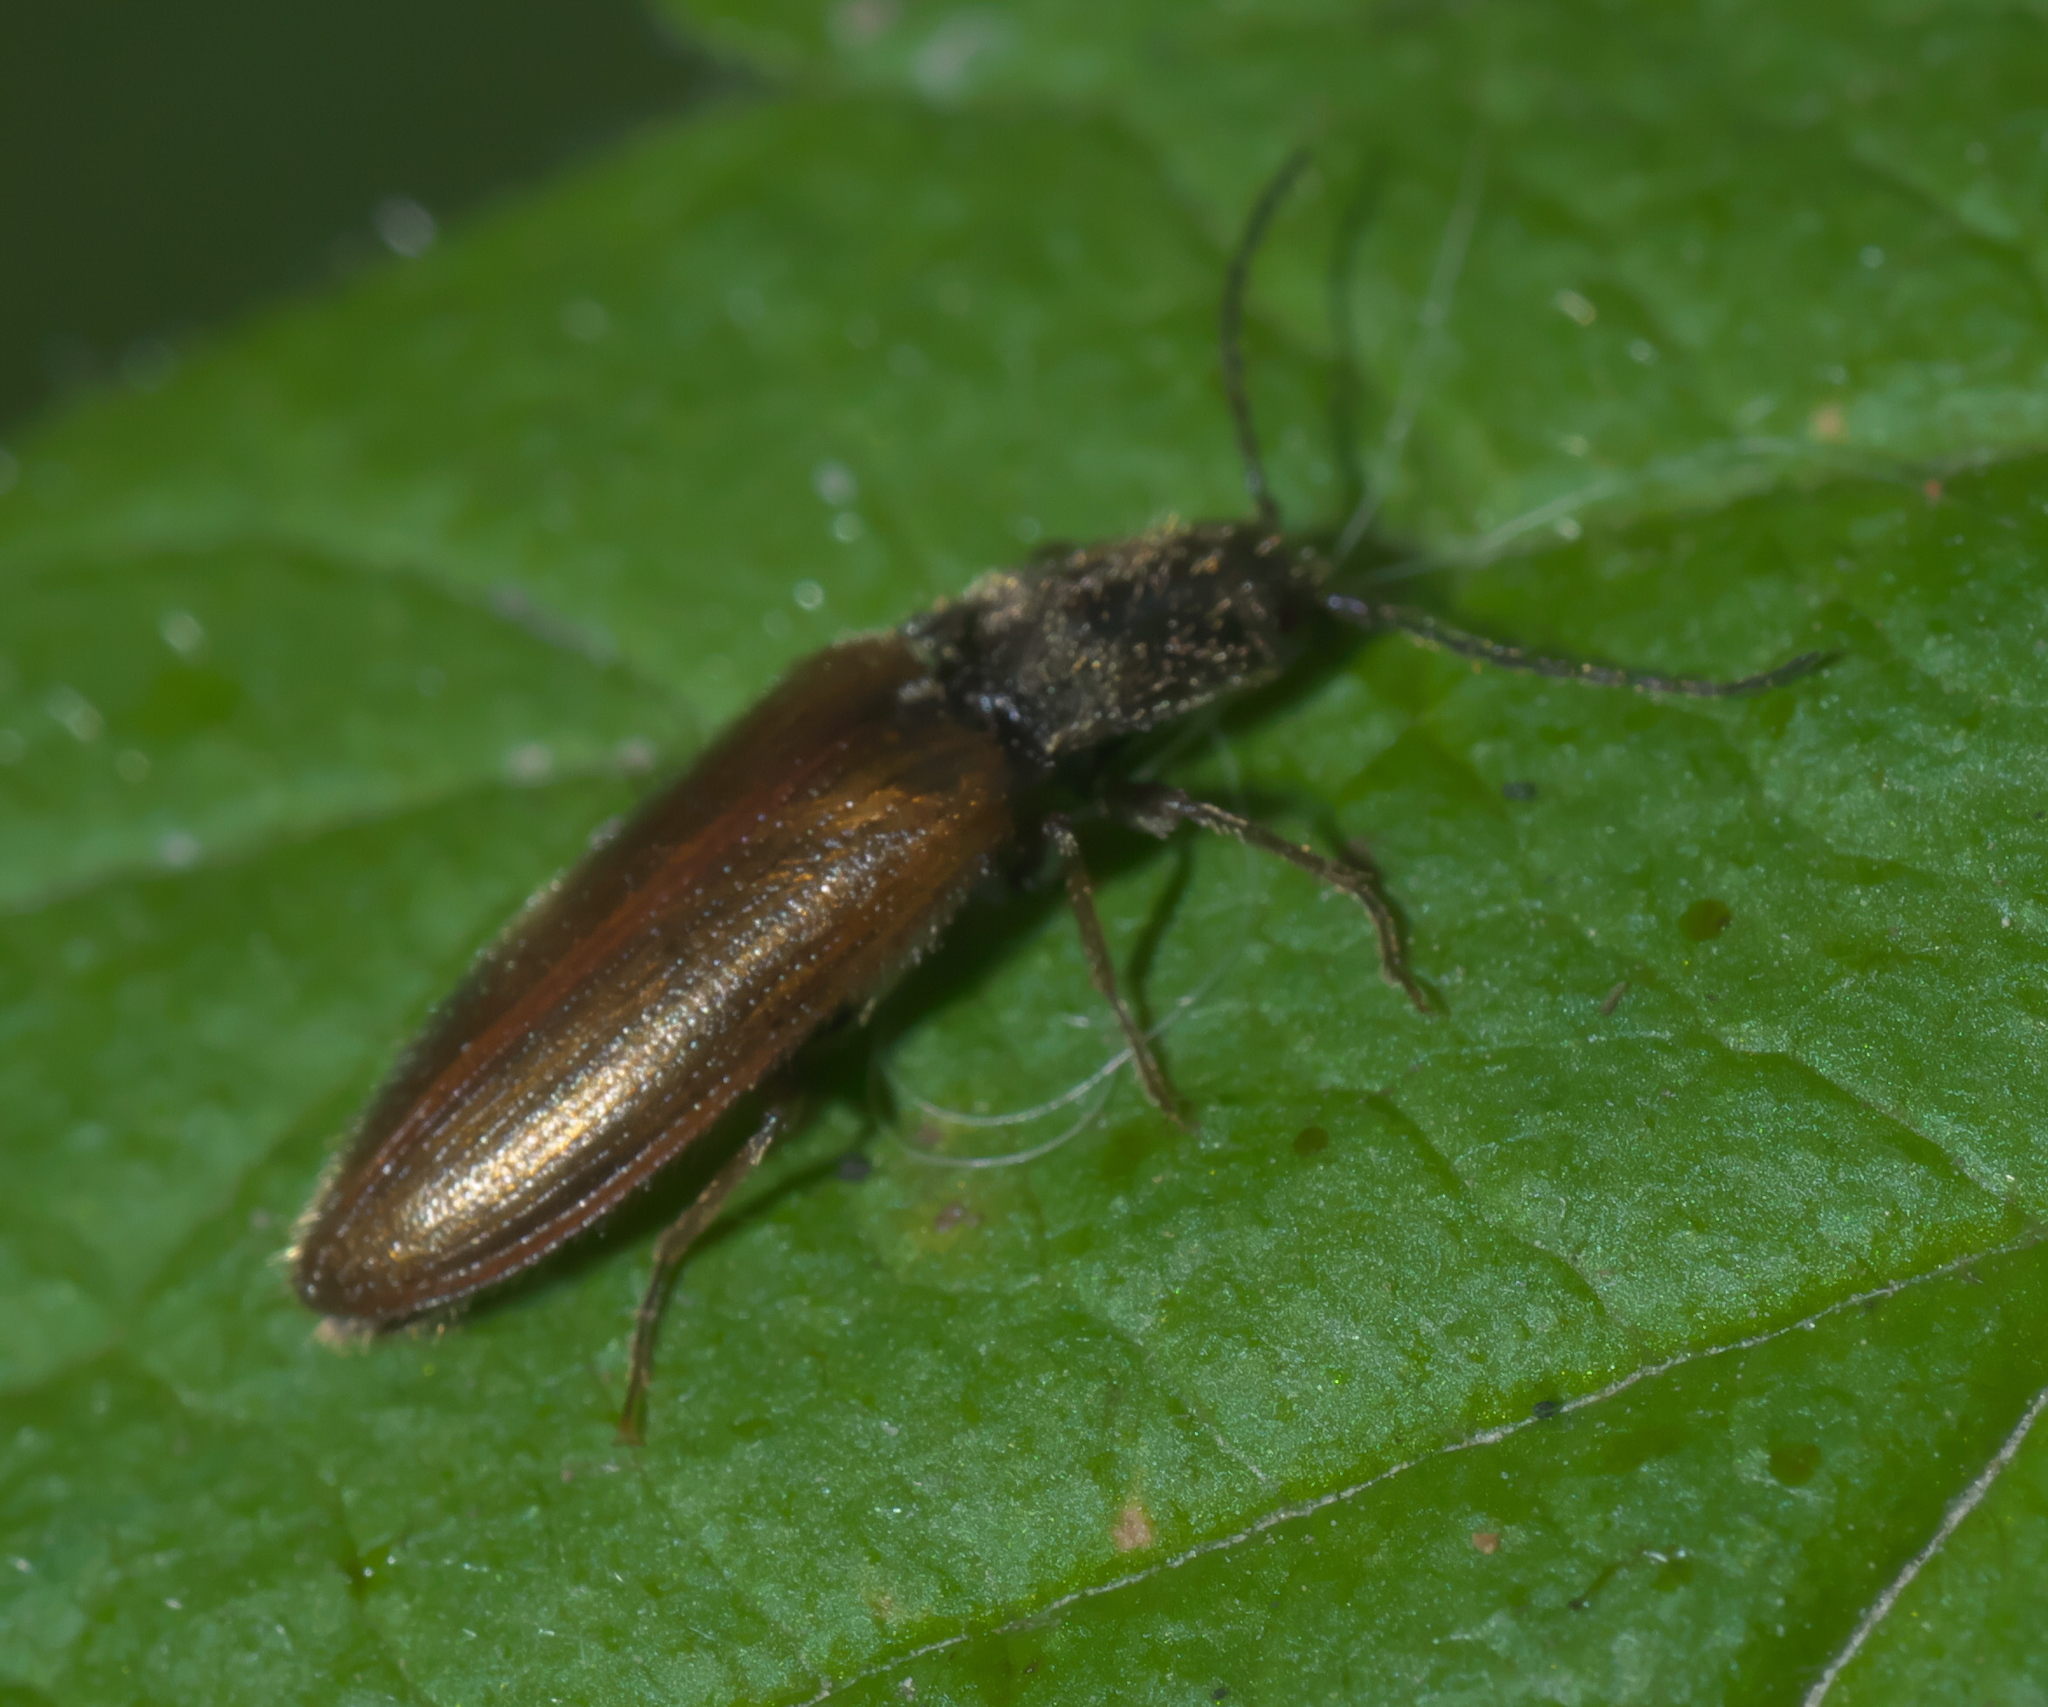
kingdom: Animalia
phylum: Arthropoda
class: Insecta
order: Coleoptera
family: Elateridae
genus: Hemicrepidius
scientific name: Hemicrepidius pallidipennis
